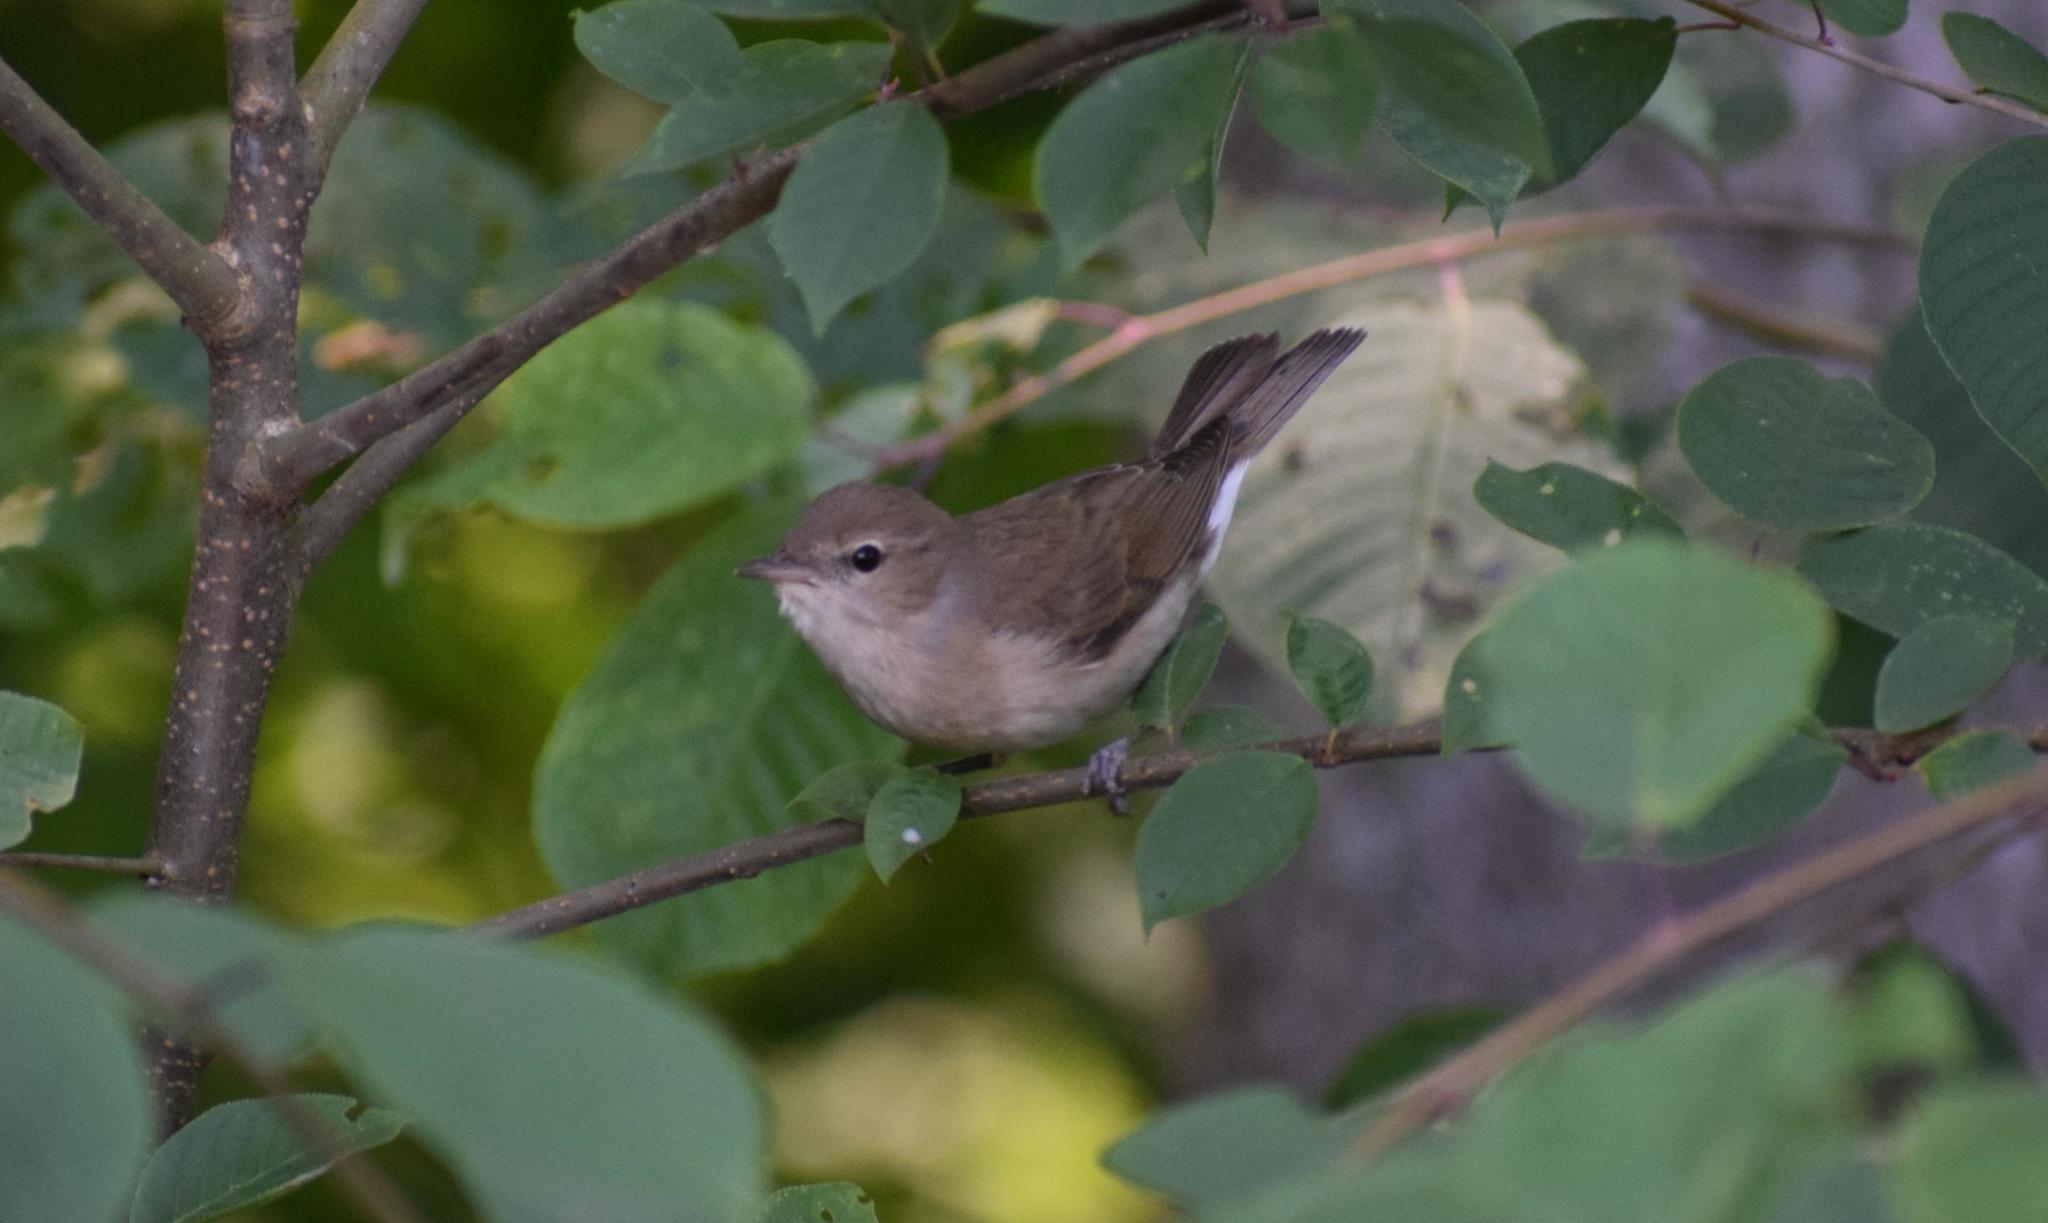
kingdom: Animalia
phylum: Chordata
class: Aves
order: Passeriformes
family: Sylviidae
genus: Sylvia
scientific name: Sylvia borin
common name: Garden warbler
